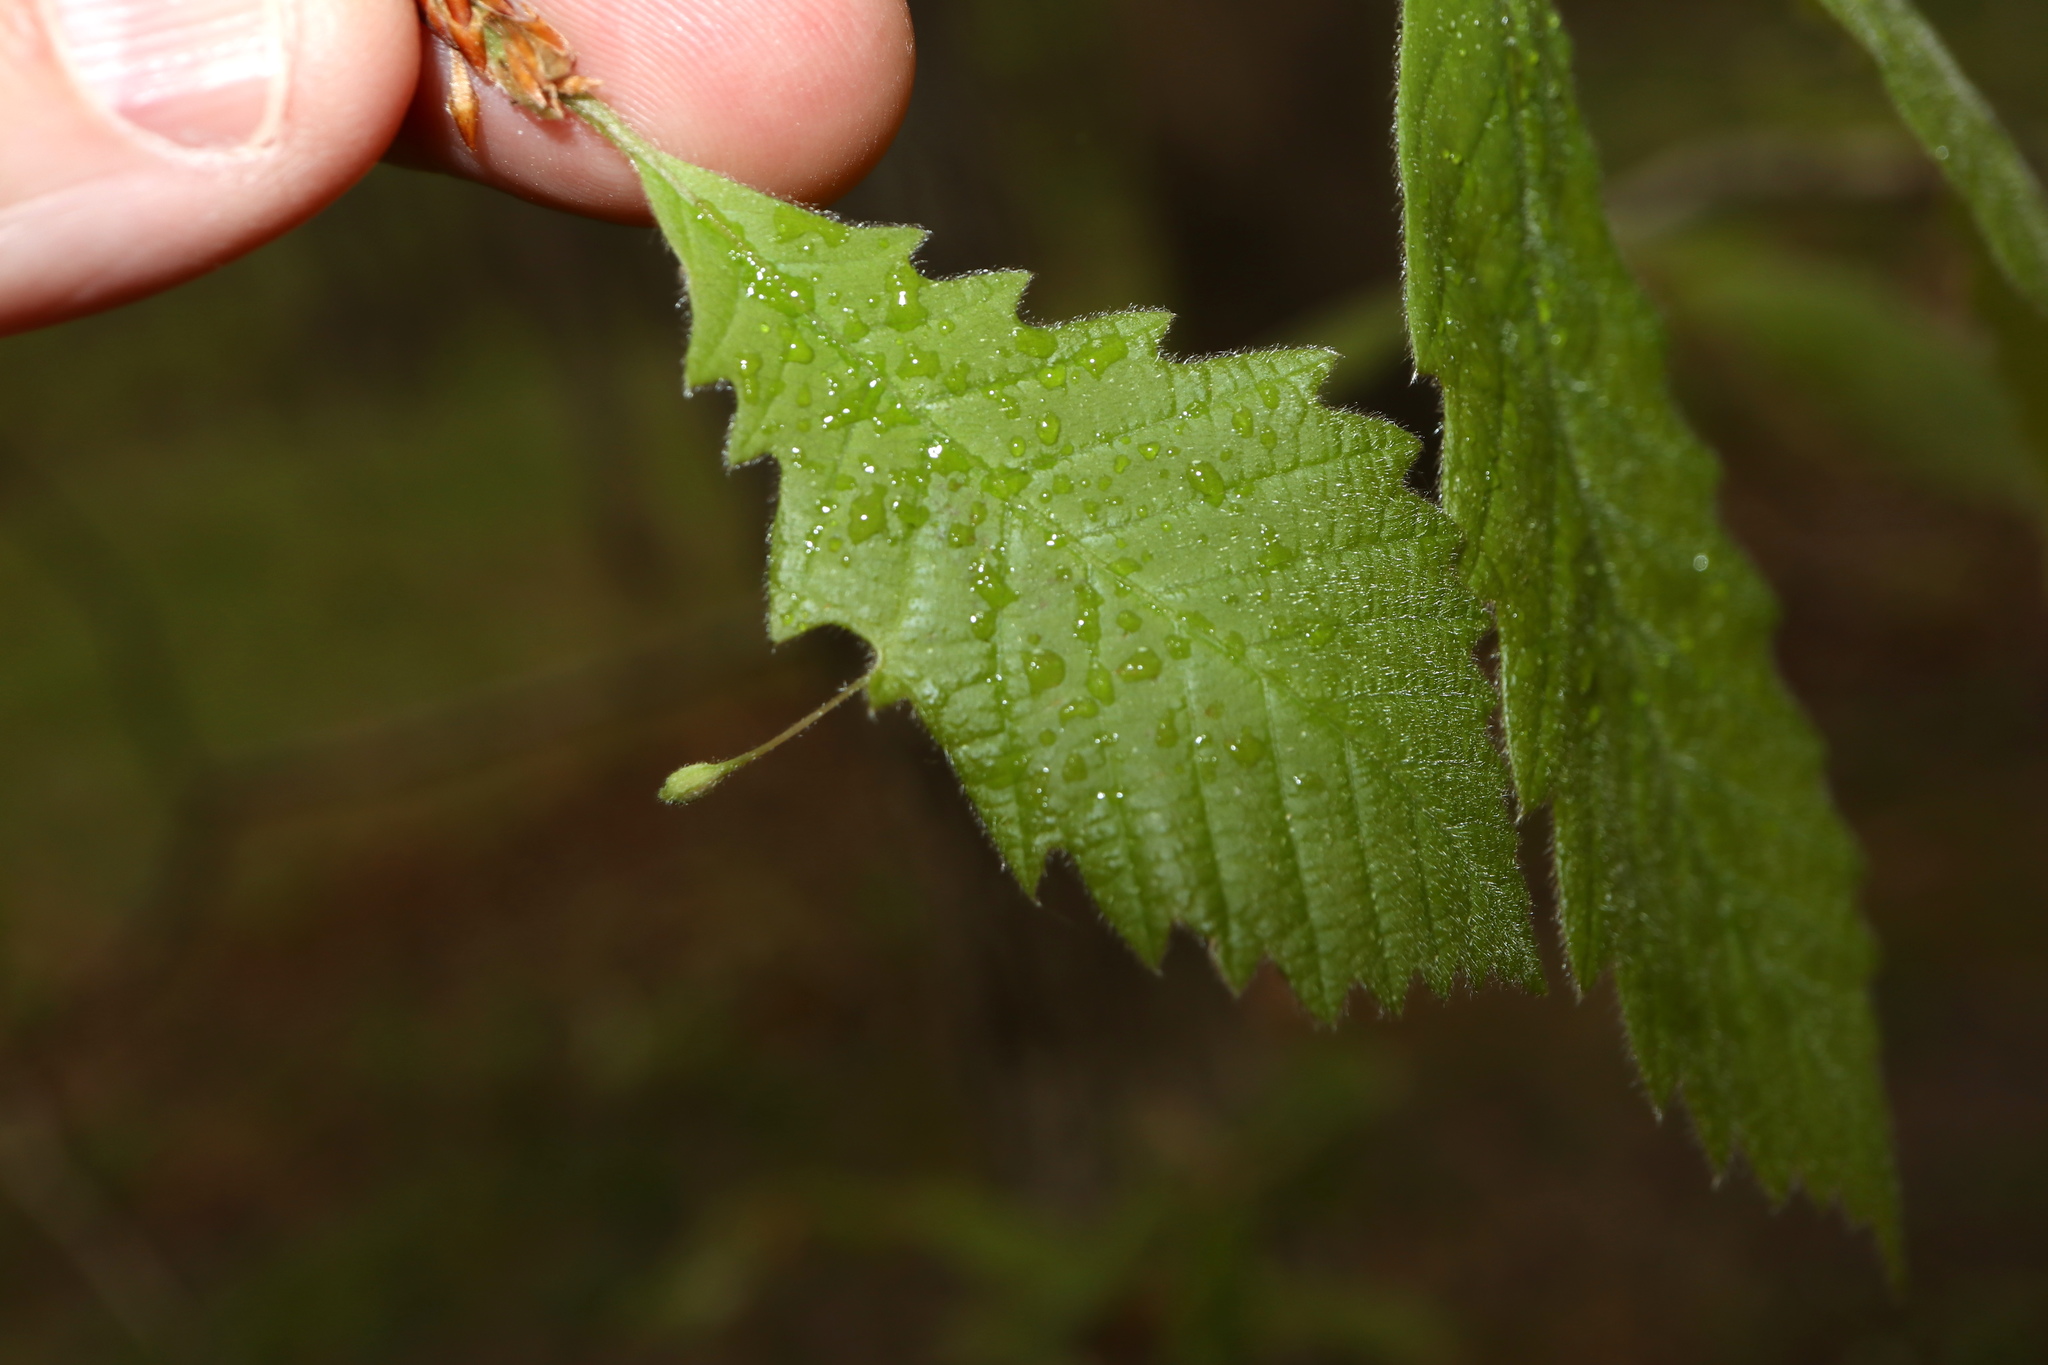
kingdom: Animalia
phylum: Arthropoda
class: Insecta
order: Hymenoptera
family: Cynipidae
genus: Andricus
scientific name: Andricus
